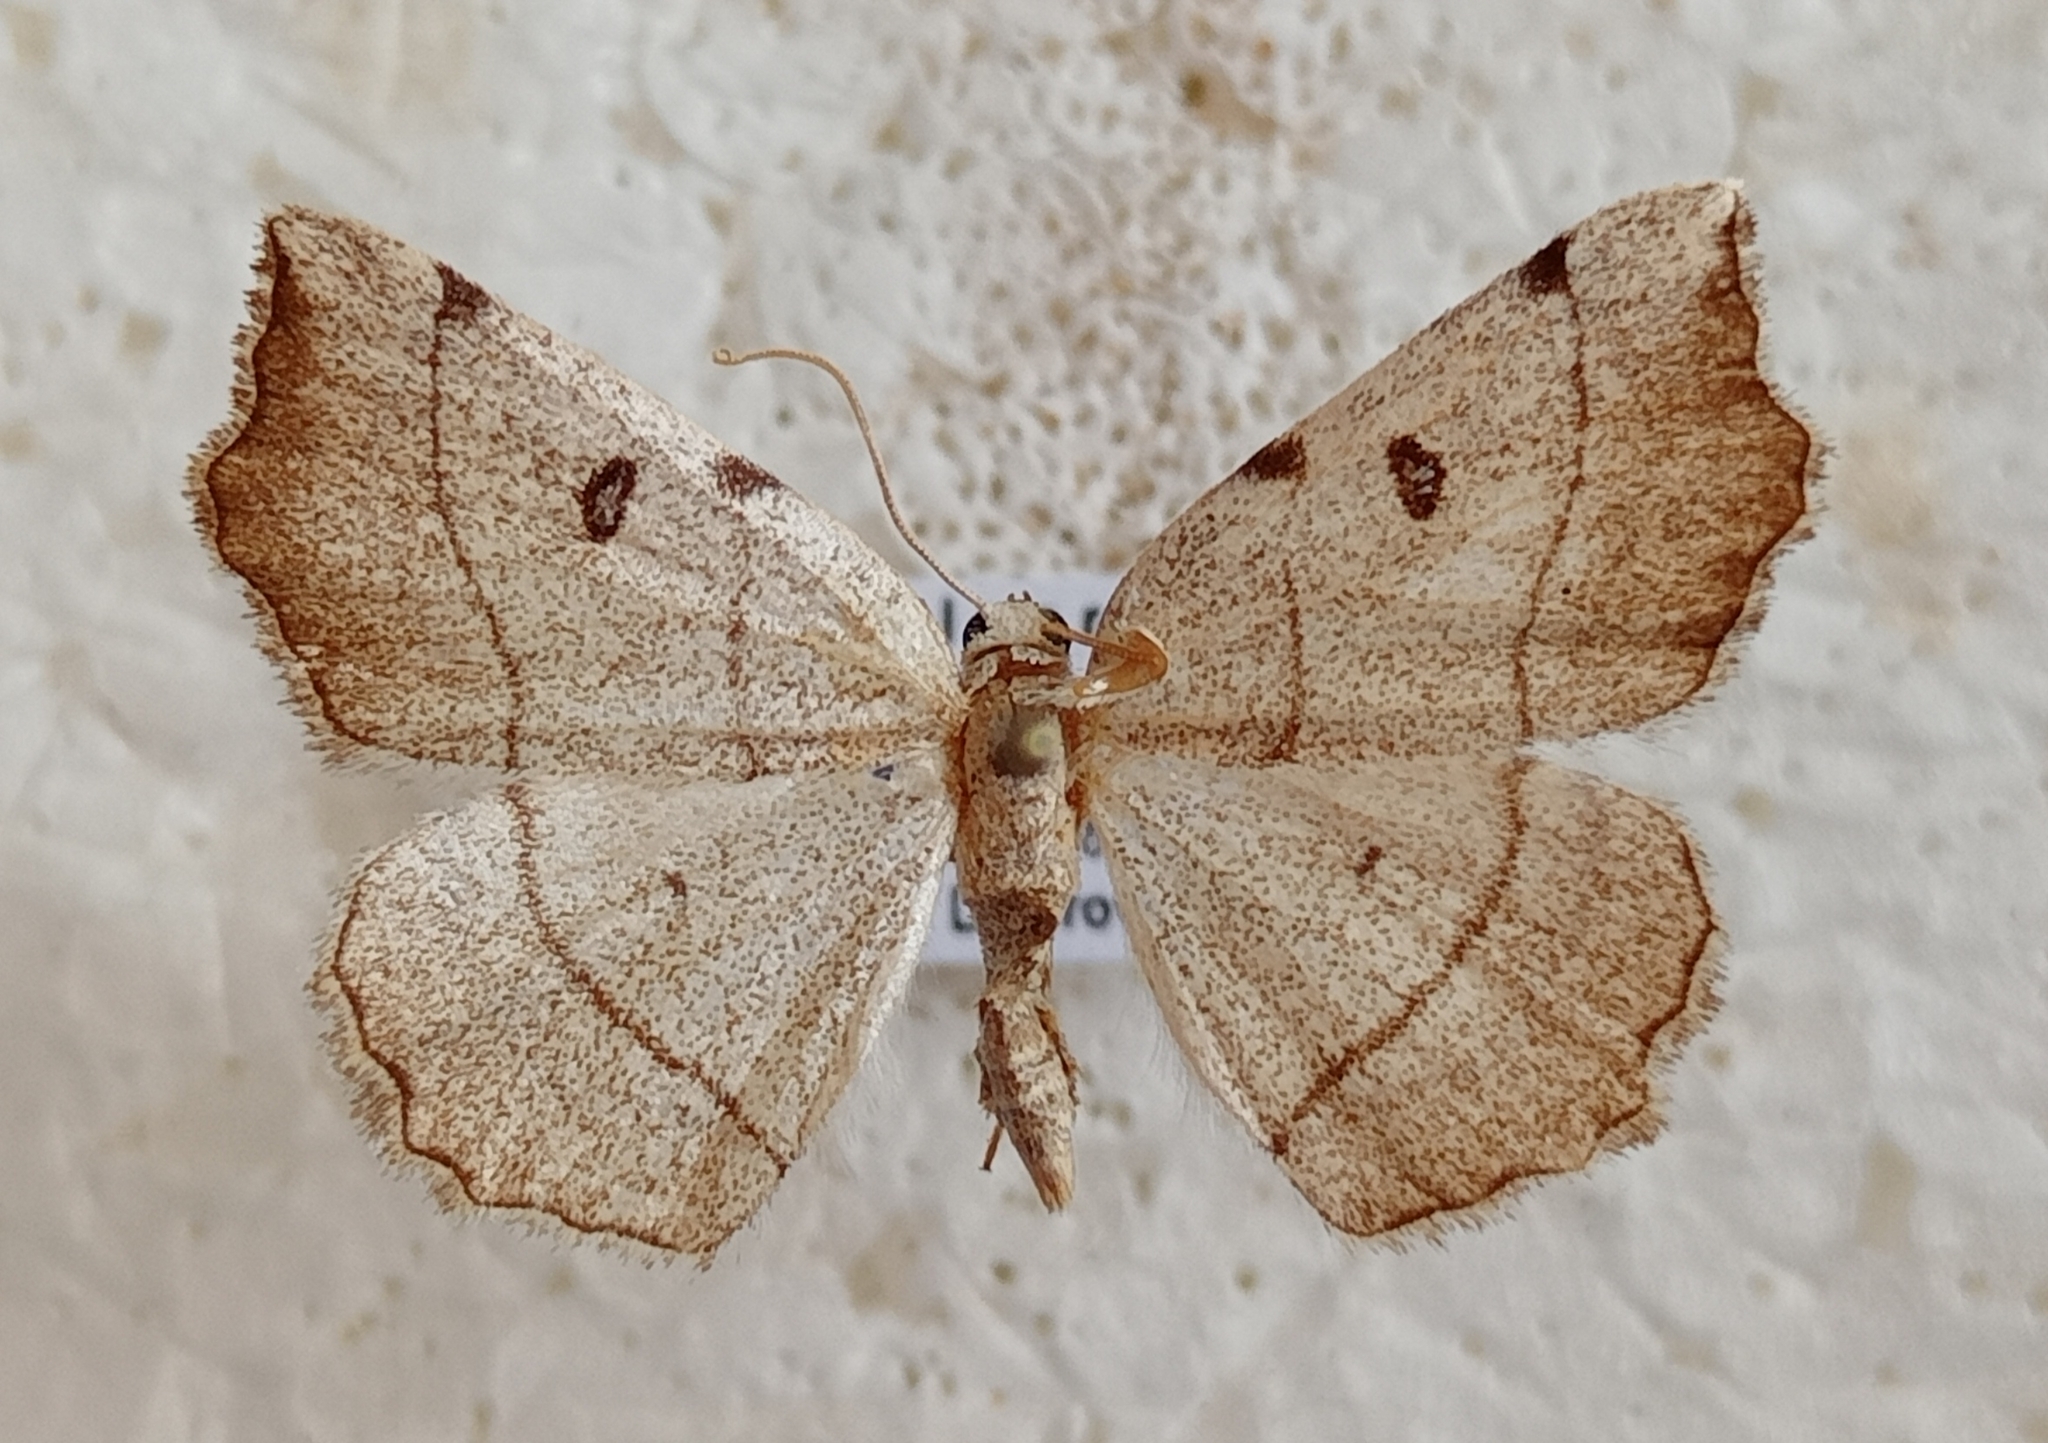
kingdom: Animalia
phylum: Arthropoda
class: Insecta
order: Lepidoptera
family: Geometridae
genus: Eilicrinia
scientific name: Eilicrinia trinotata
